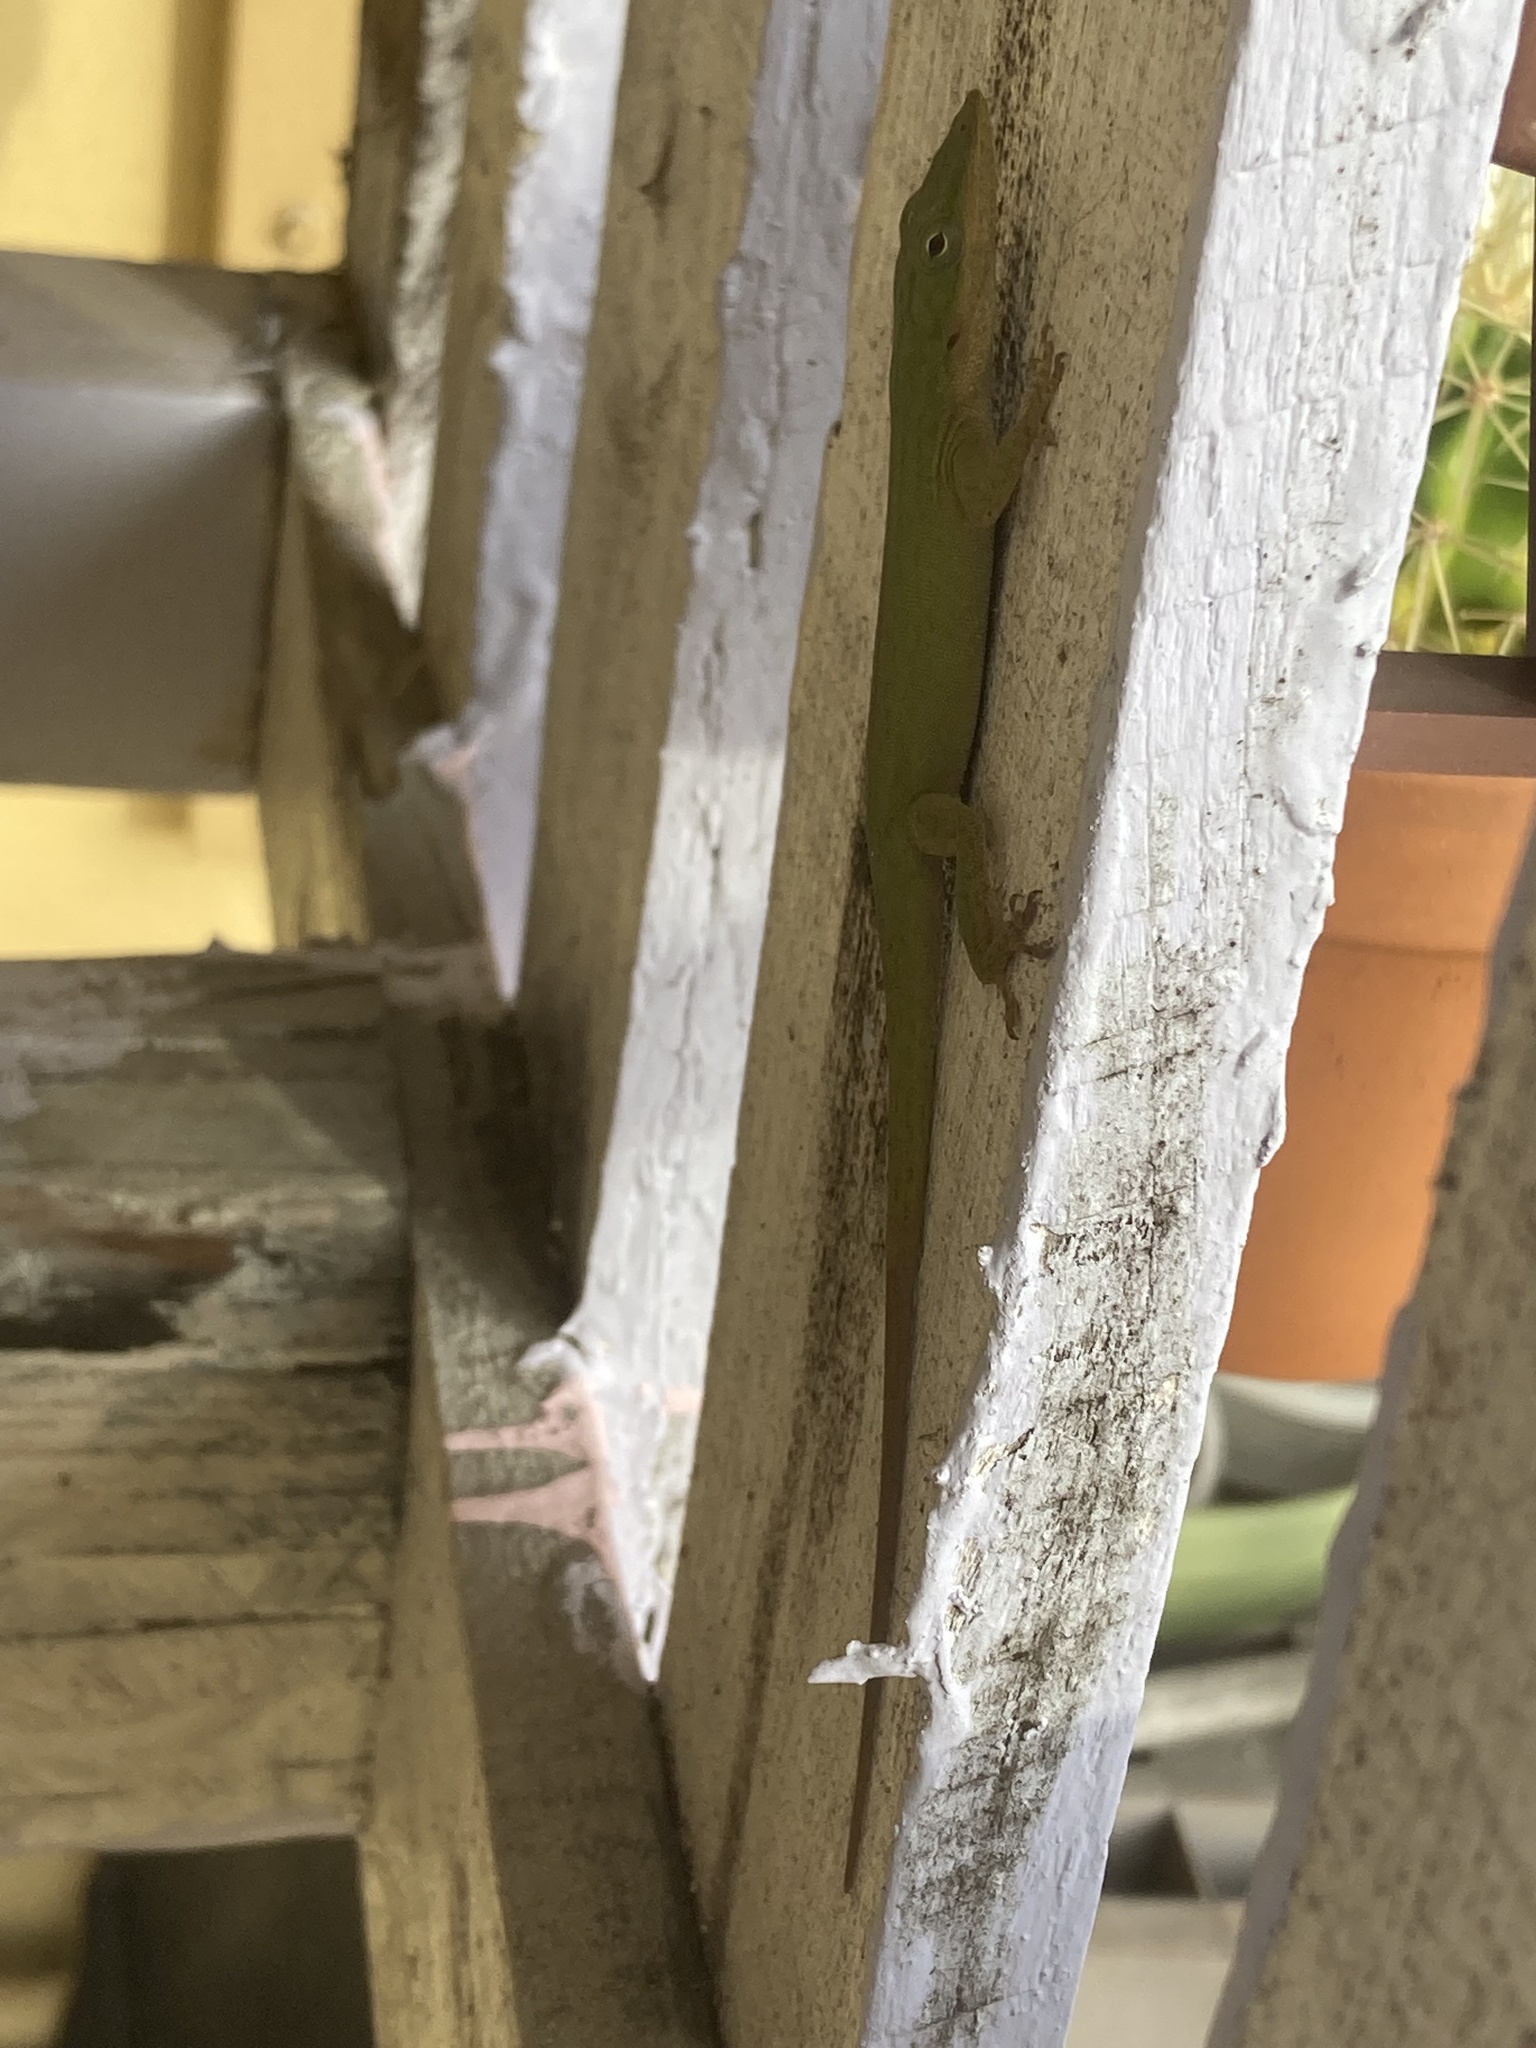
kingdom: Animalia
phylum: Chordata
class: Squamata
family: Dactyloidae
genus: Anolis
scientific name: Anolis carolinensis
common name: Green anole
